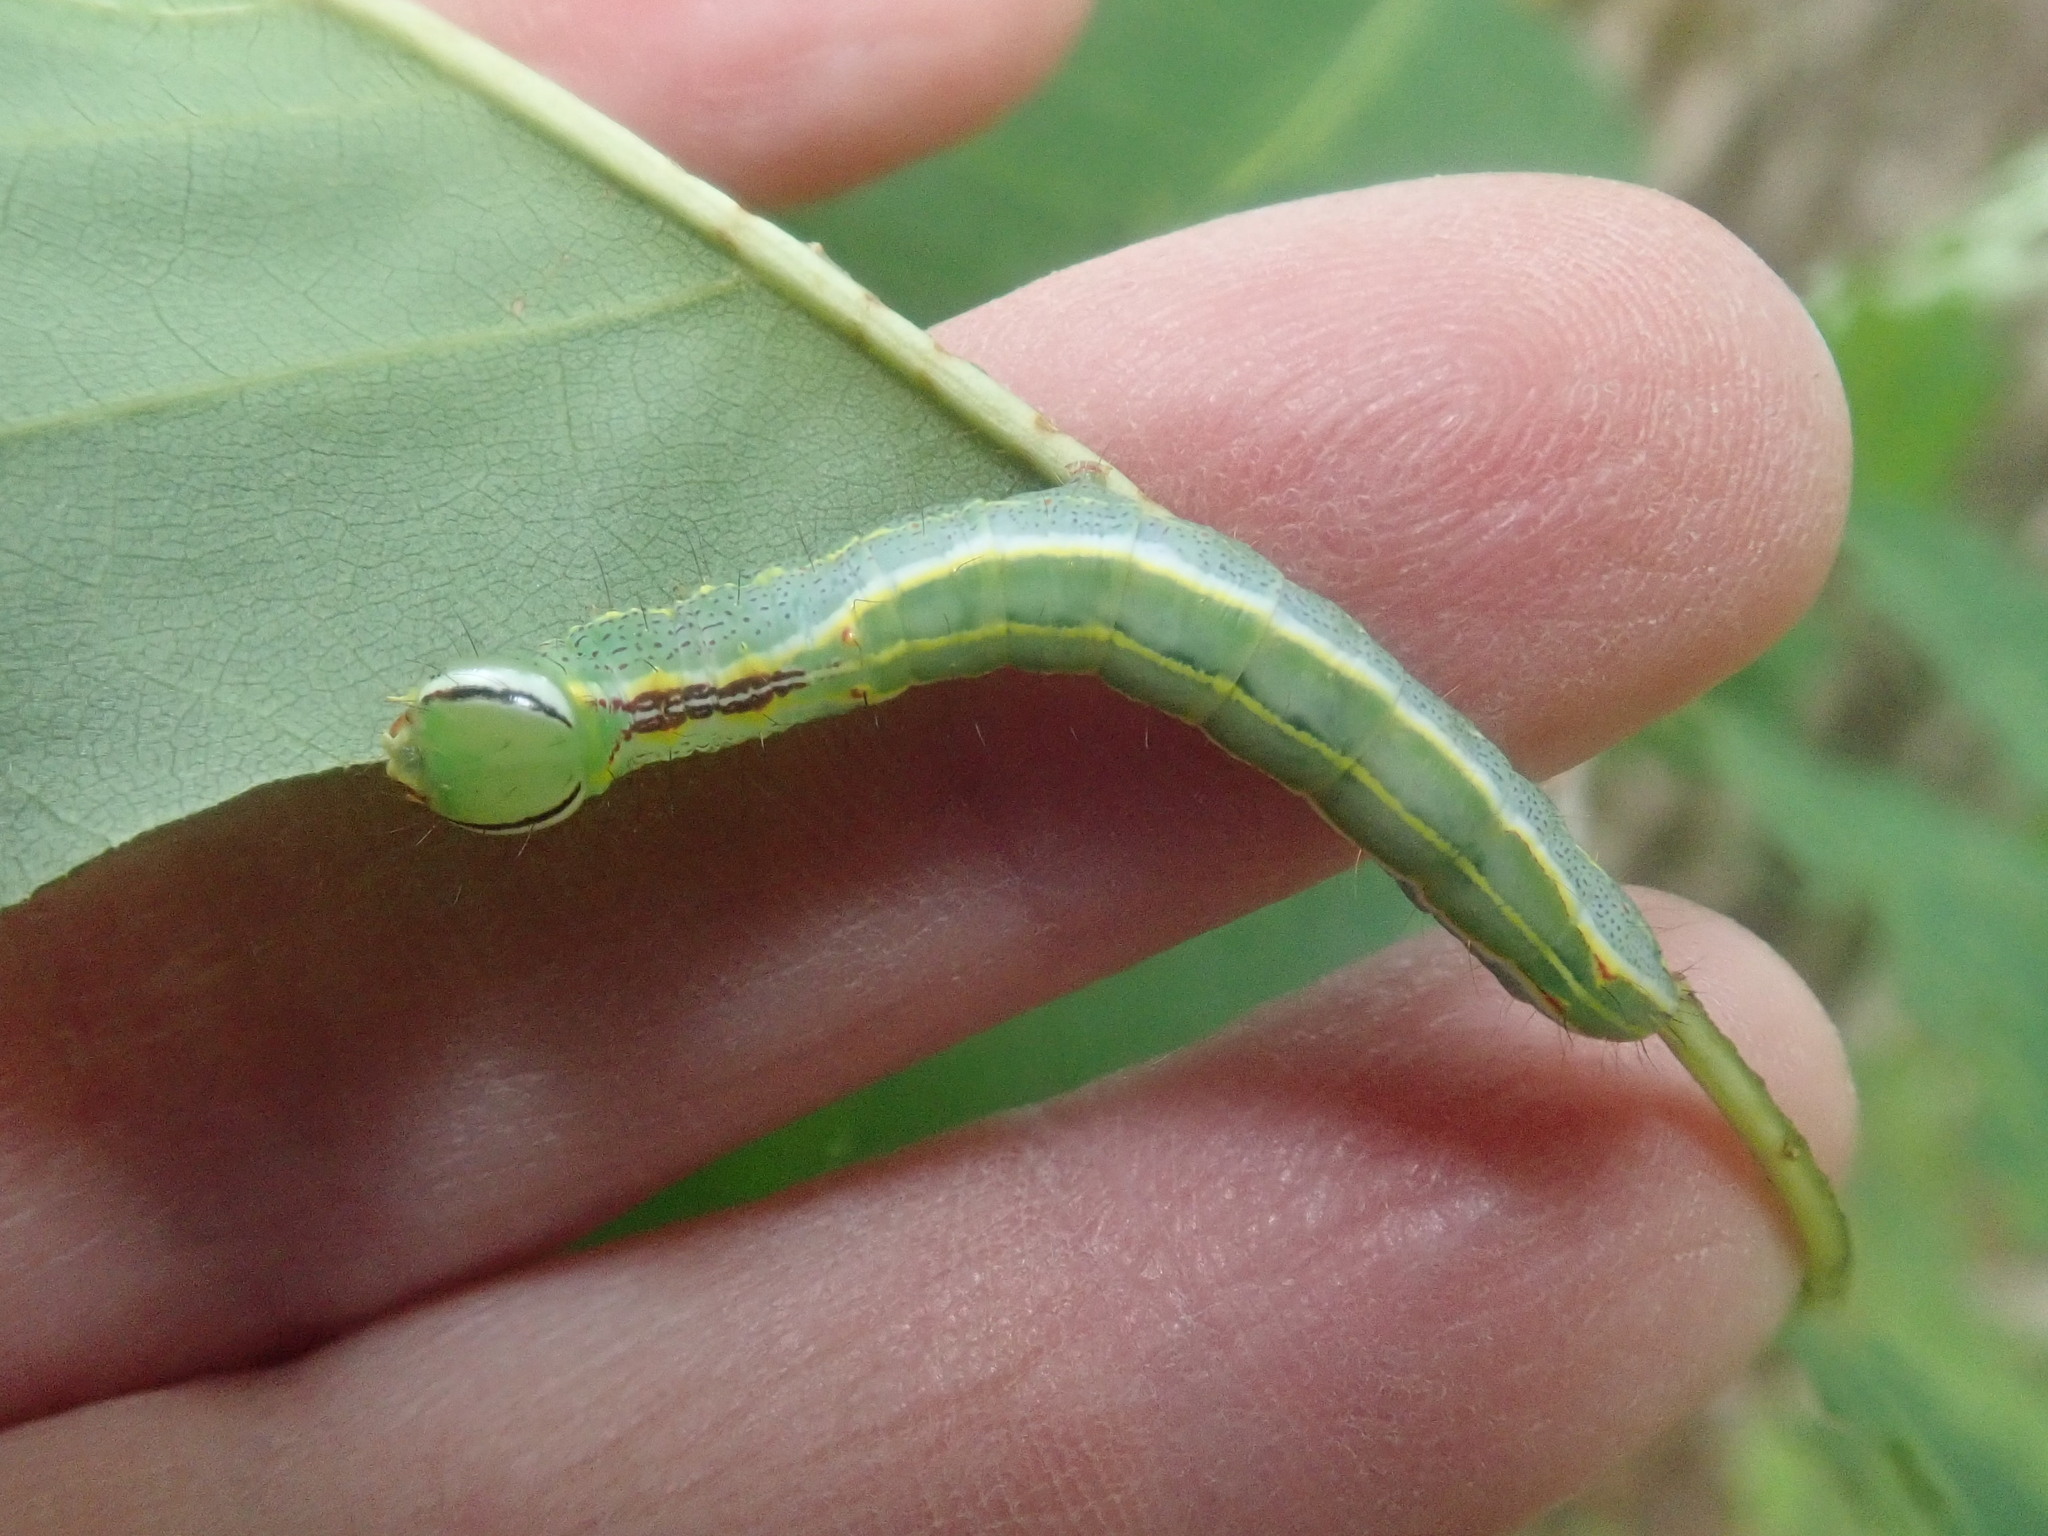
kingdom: Animalia
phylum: Arthropoda
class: Insecta
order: Lepidoptera
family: Notodontidae
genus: Lochmaeus
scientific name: Lochmaeus manteo
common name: Variable oakleaf caterpillar moth
